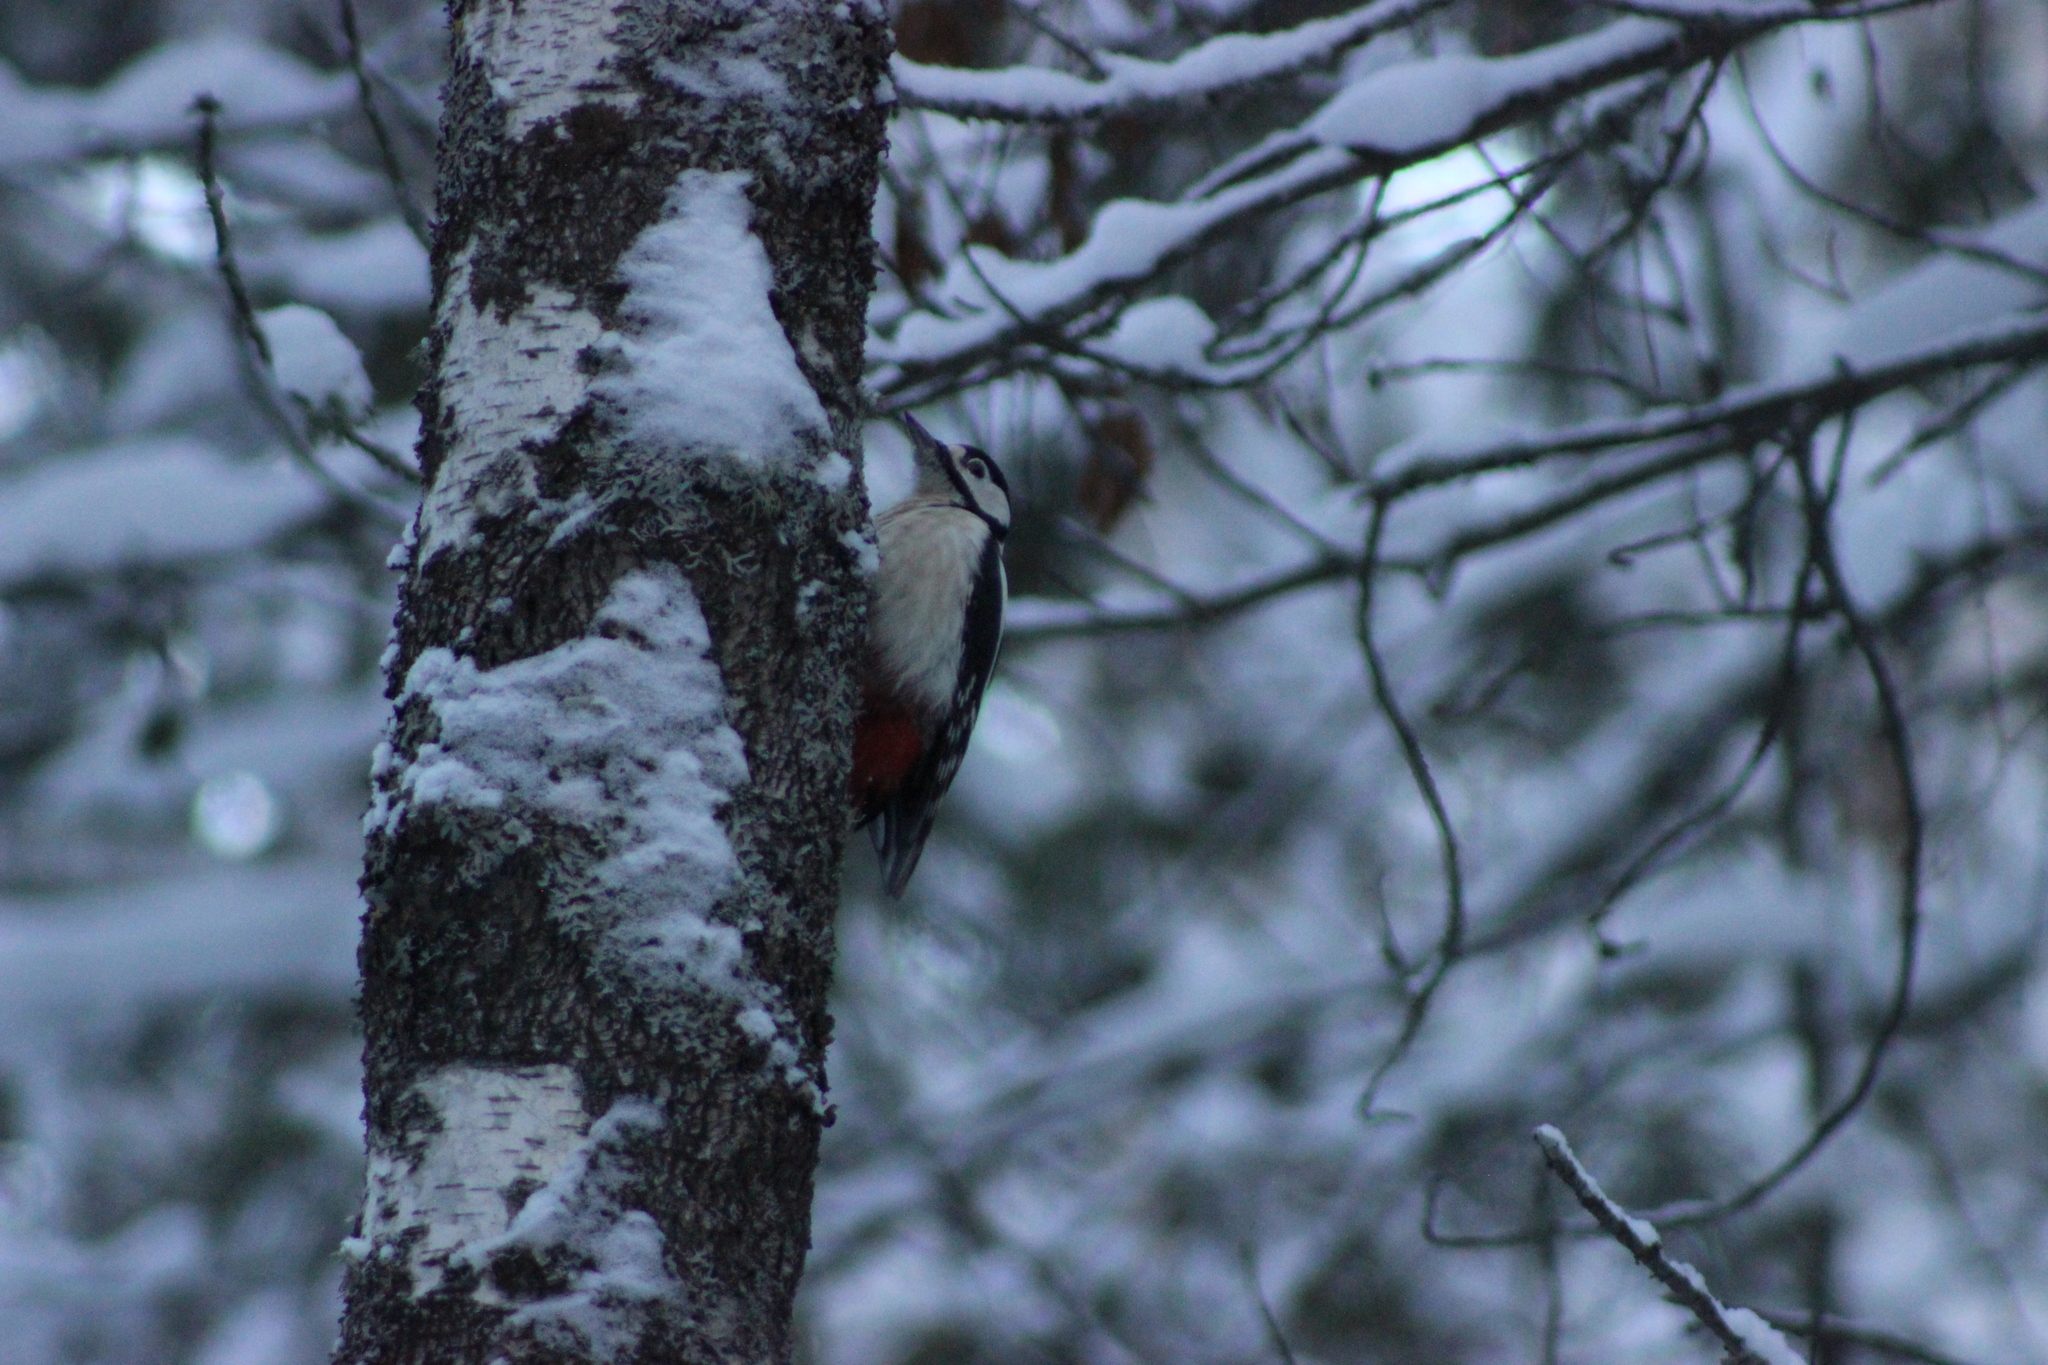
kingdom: Animalia
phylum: Chordata
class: Aves
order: Piciformes
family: Picidae
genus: Dendrocopos
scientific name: Dendrocopos major
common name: Great spotted woodpecker
